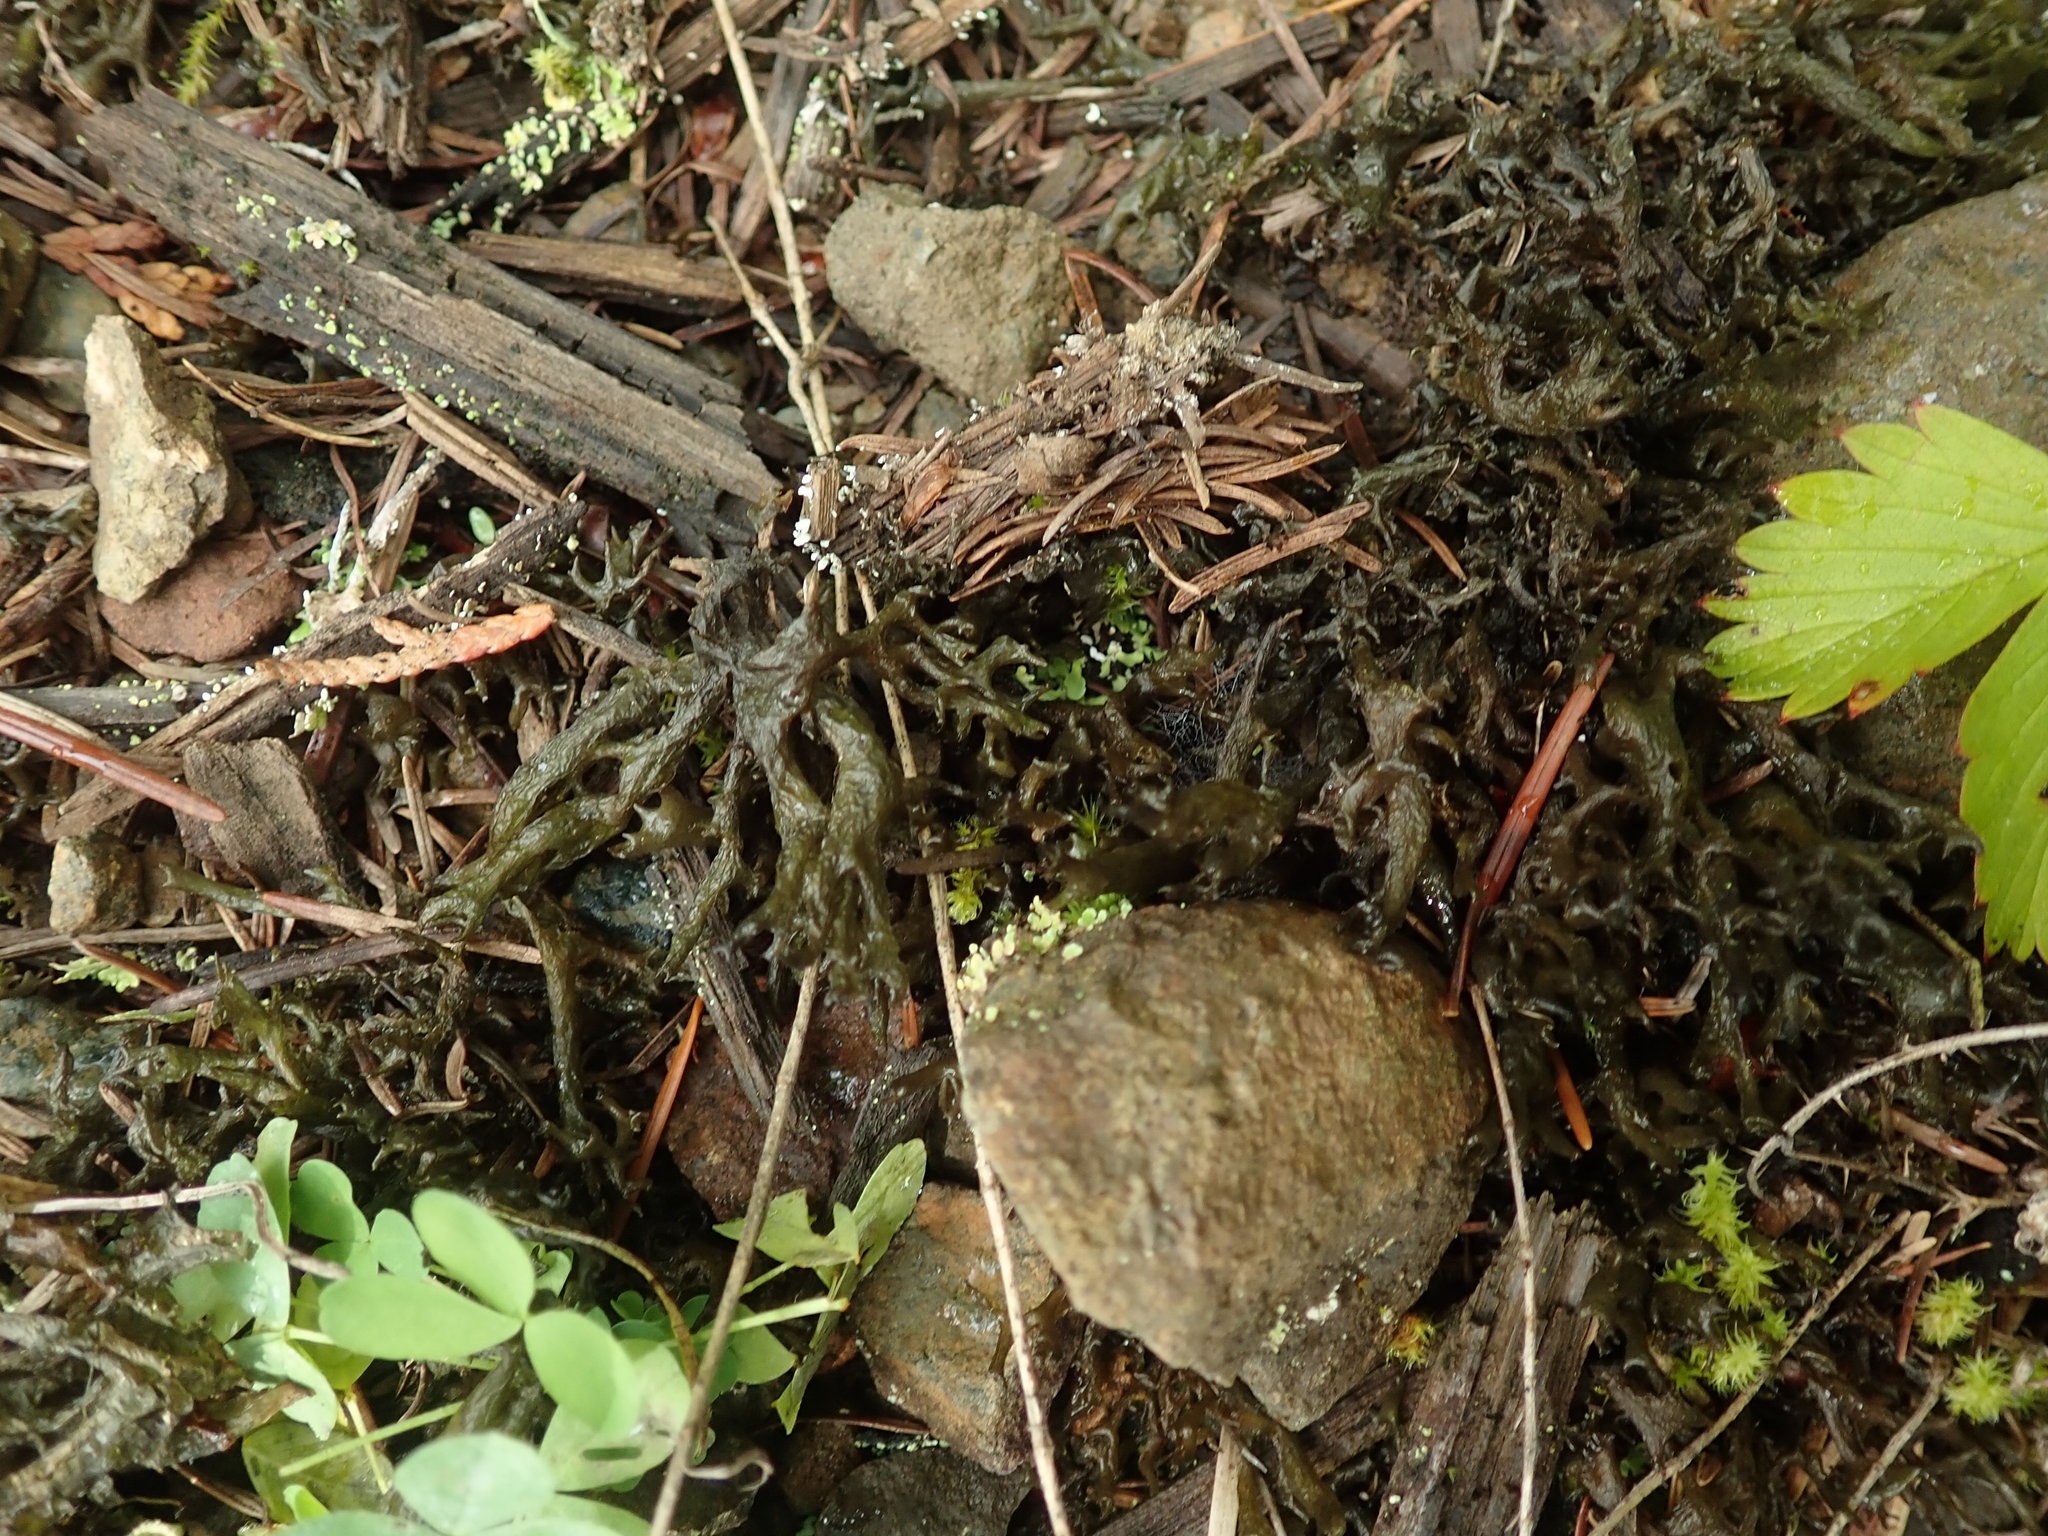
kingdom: Fungi
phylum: Ascomycota
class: Lecanoromycetes
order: Peltigerales
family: Collemataceae
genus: Scytinium
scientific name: Scytinium palmatum
